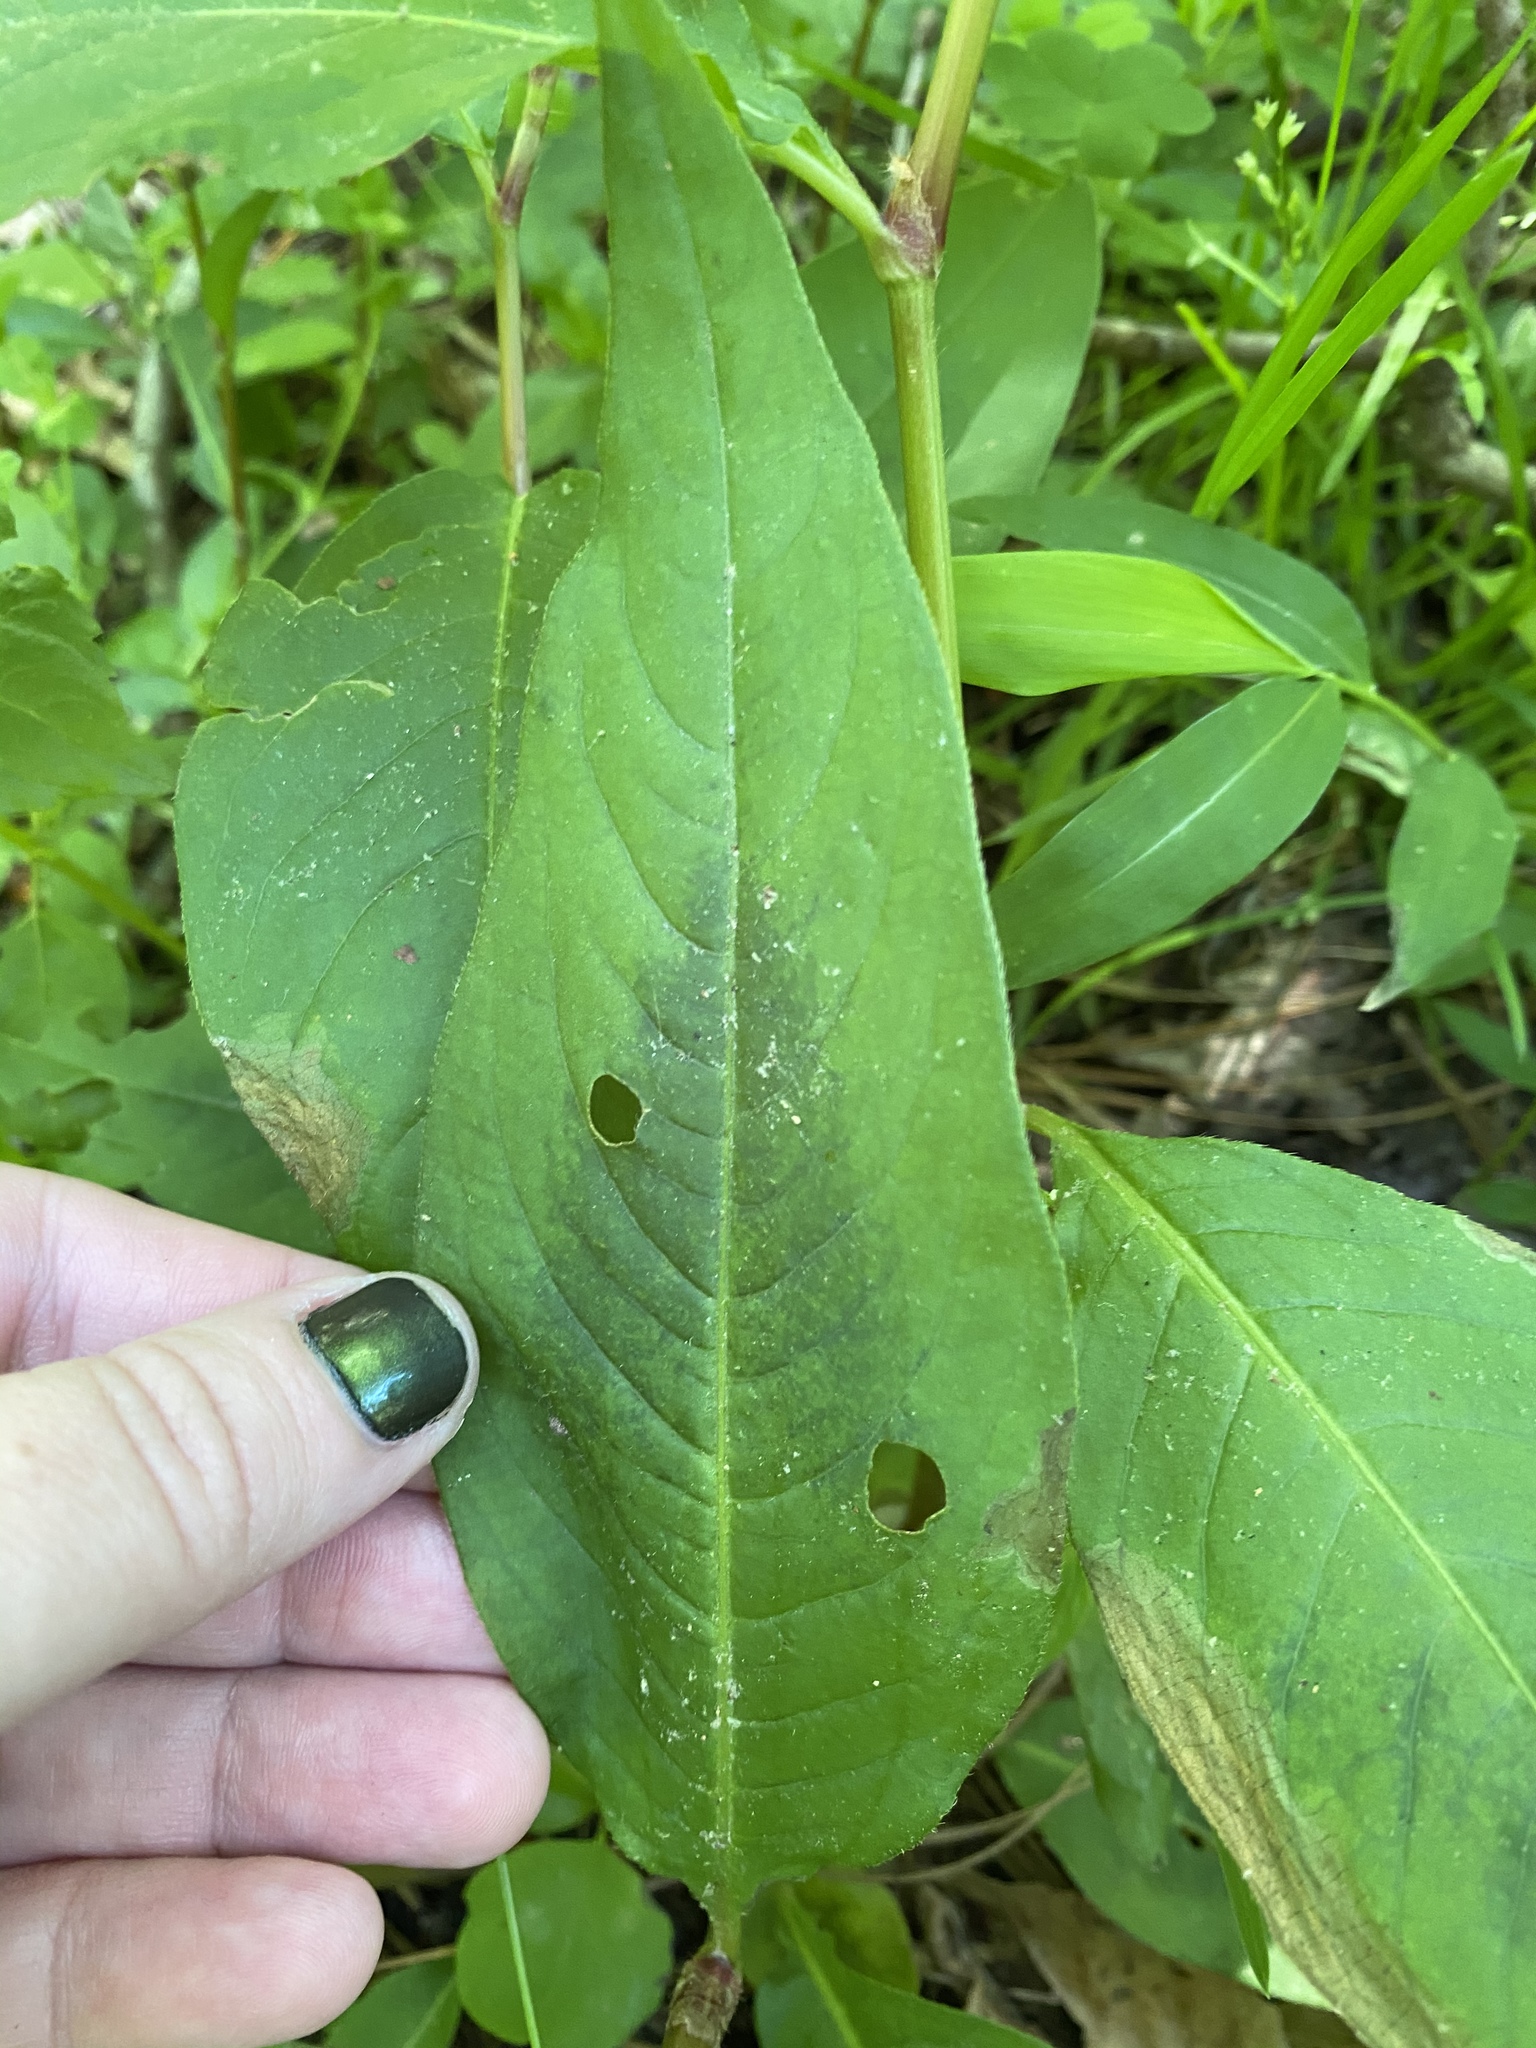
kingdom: Plantae
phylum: Tracheophyta
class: Magnoliopsida
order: Caryophyllales
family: Polygonaceae
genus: Persicaria
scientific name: Persicaria virginiana
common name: Jumpseed
